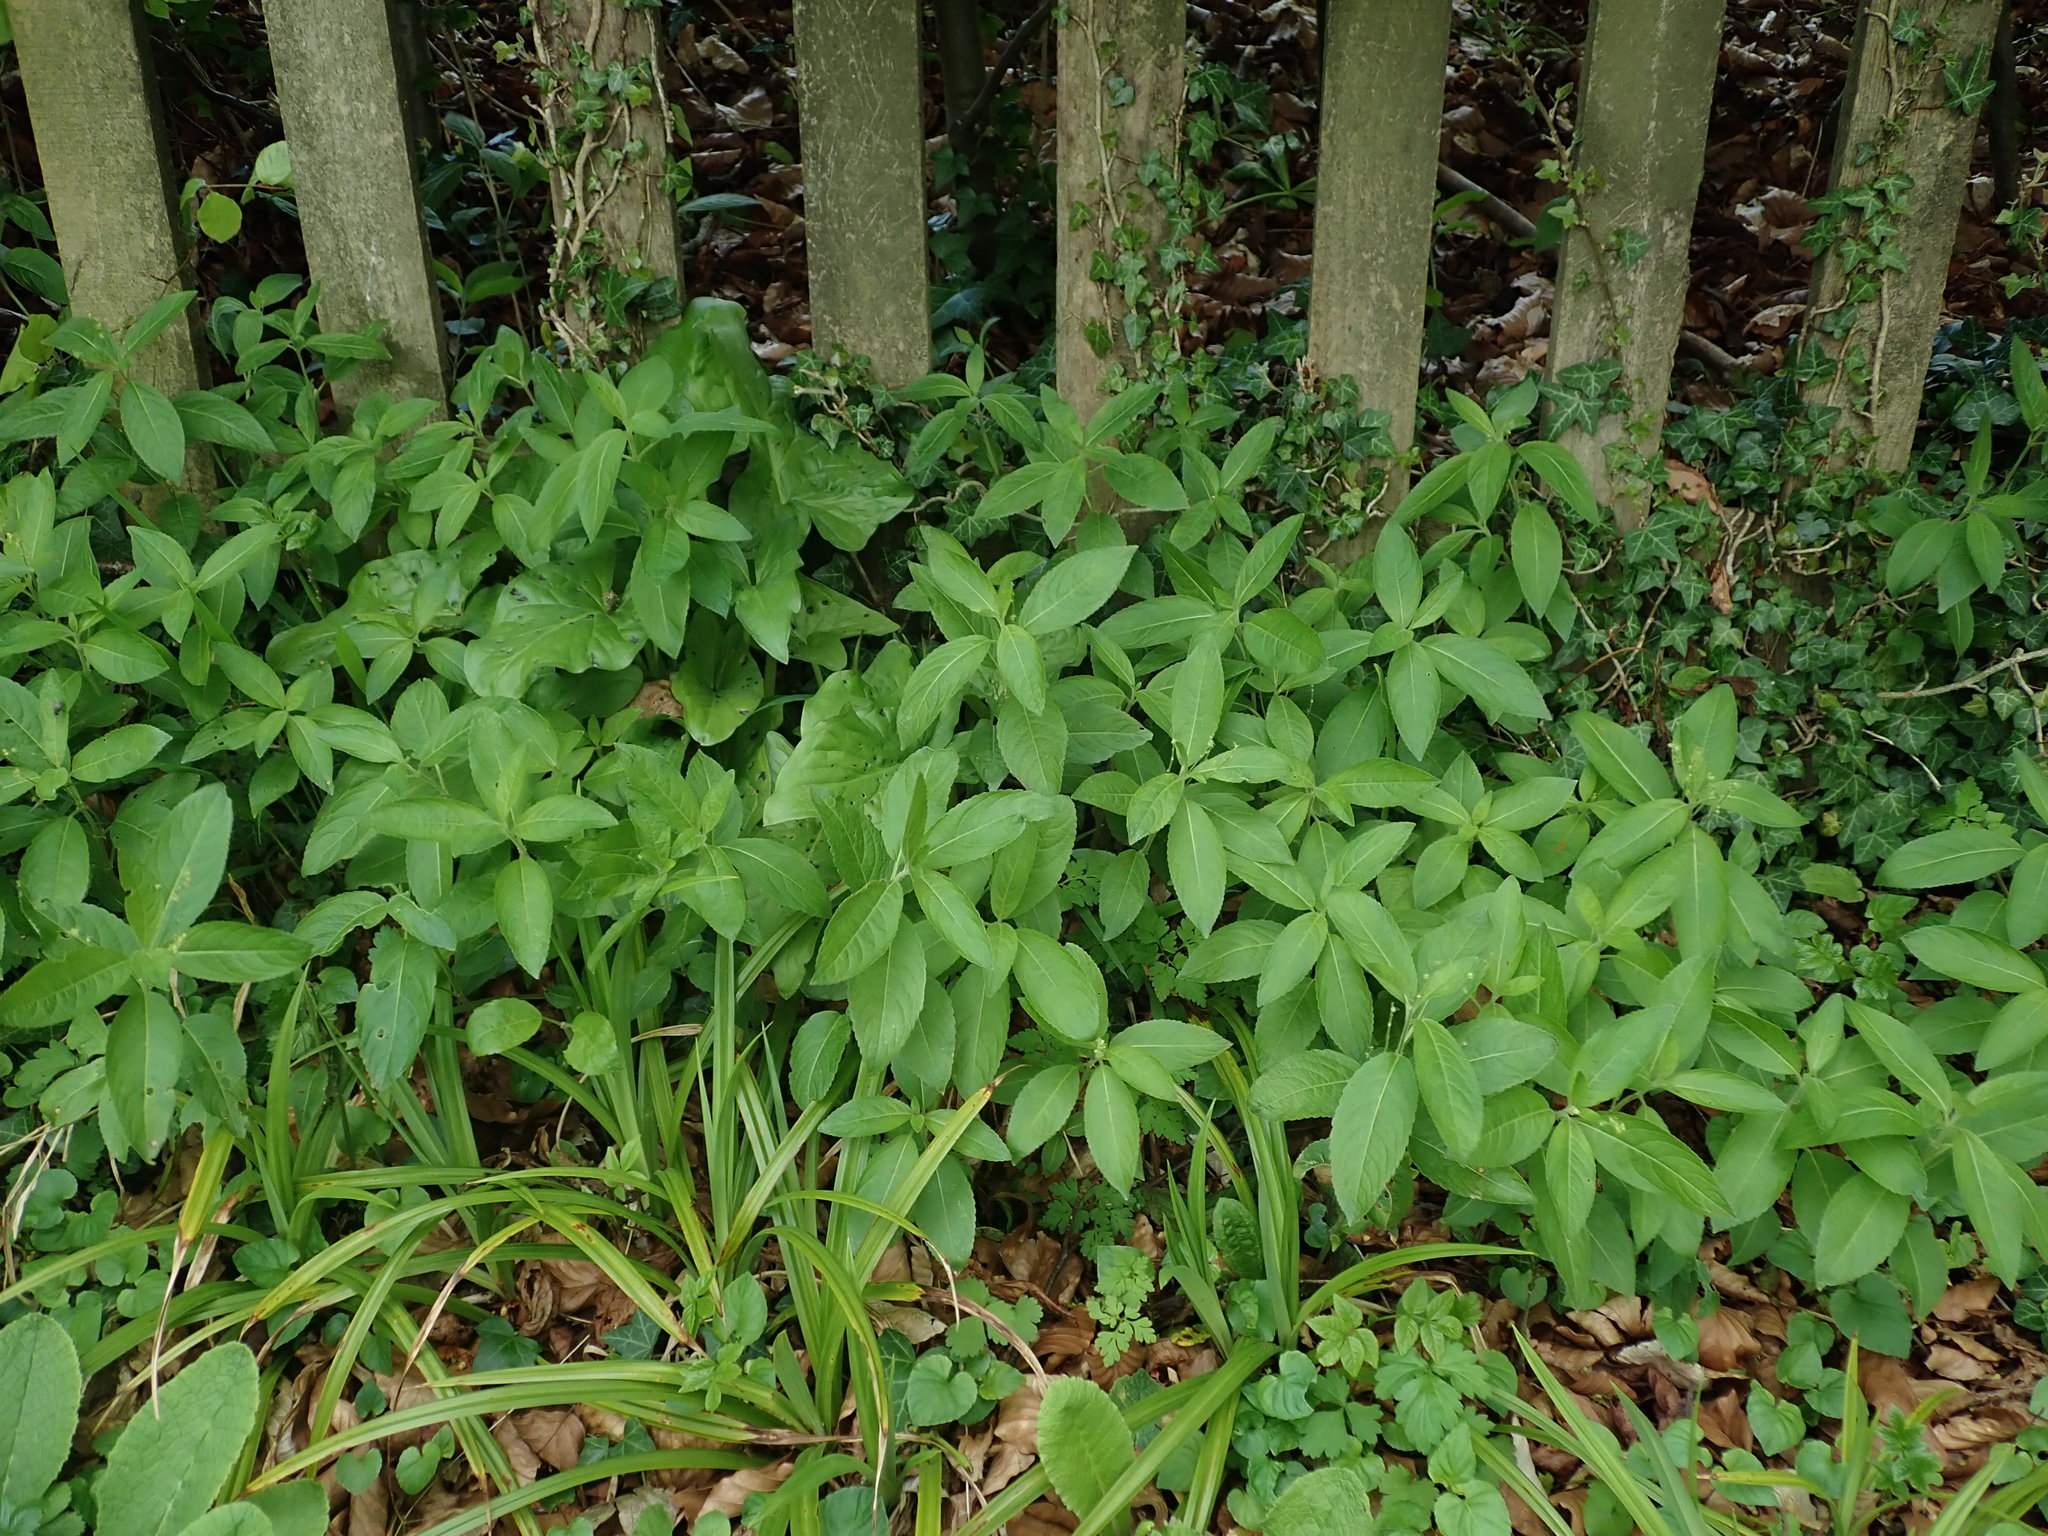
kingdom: Plantae
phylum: Tracheophyta
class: Magnoliopsida
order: Malpighiales
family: Euphorbiaceae
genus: Mercurialis
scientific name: Mercurialis perennis
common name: Dog mercury
